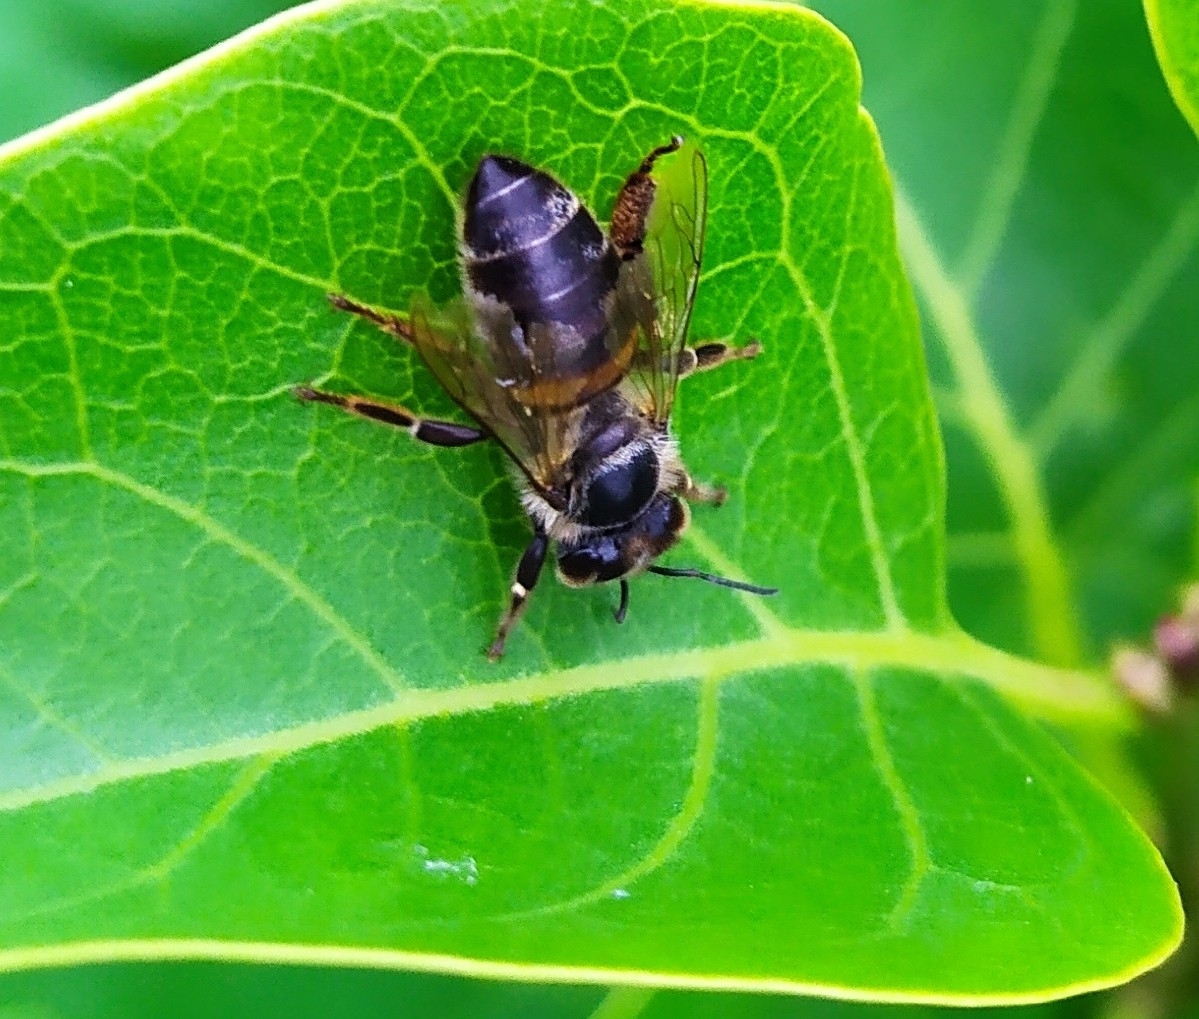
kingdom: Animalia
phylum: Arthropoda
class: Insecta
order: Hymenoptera
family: Apidae
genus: Apis
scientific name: Apis mellifera
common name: Honey bee
